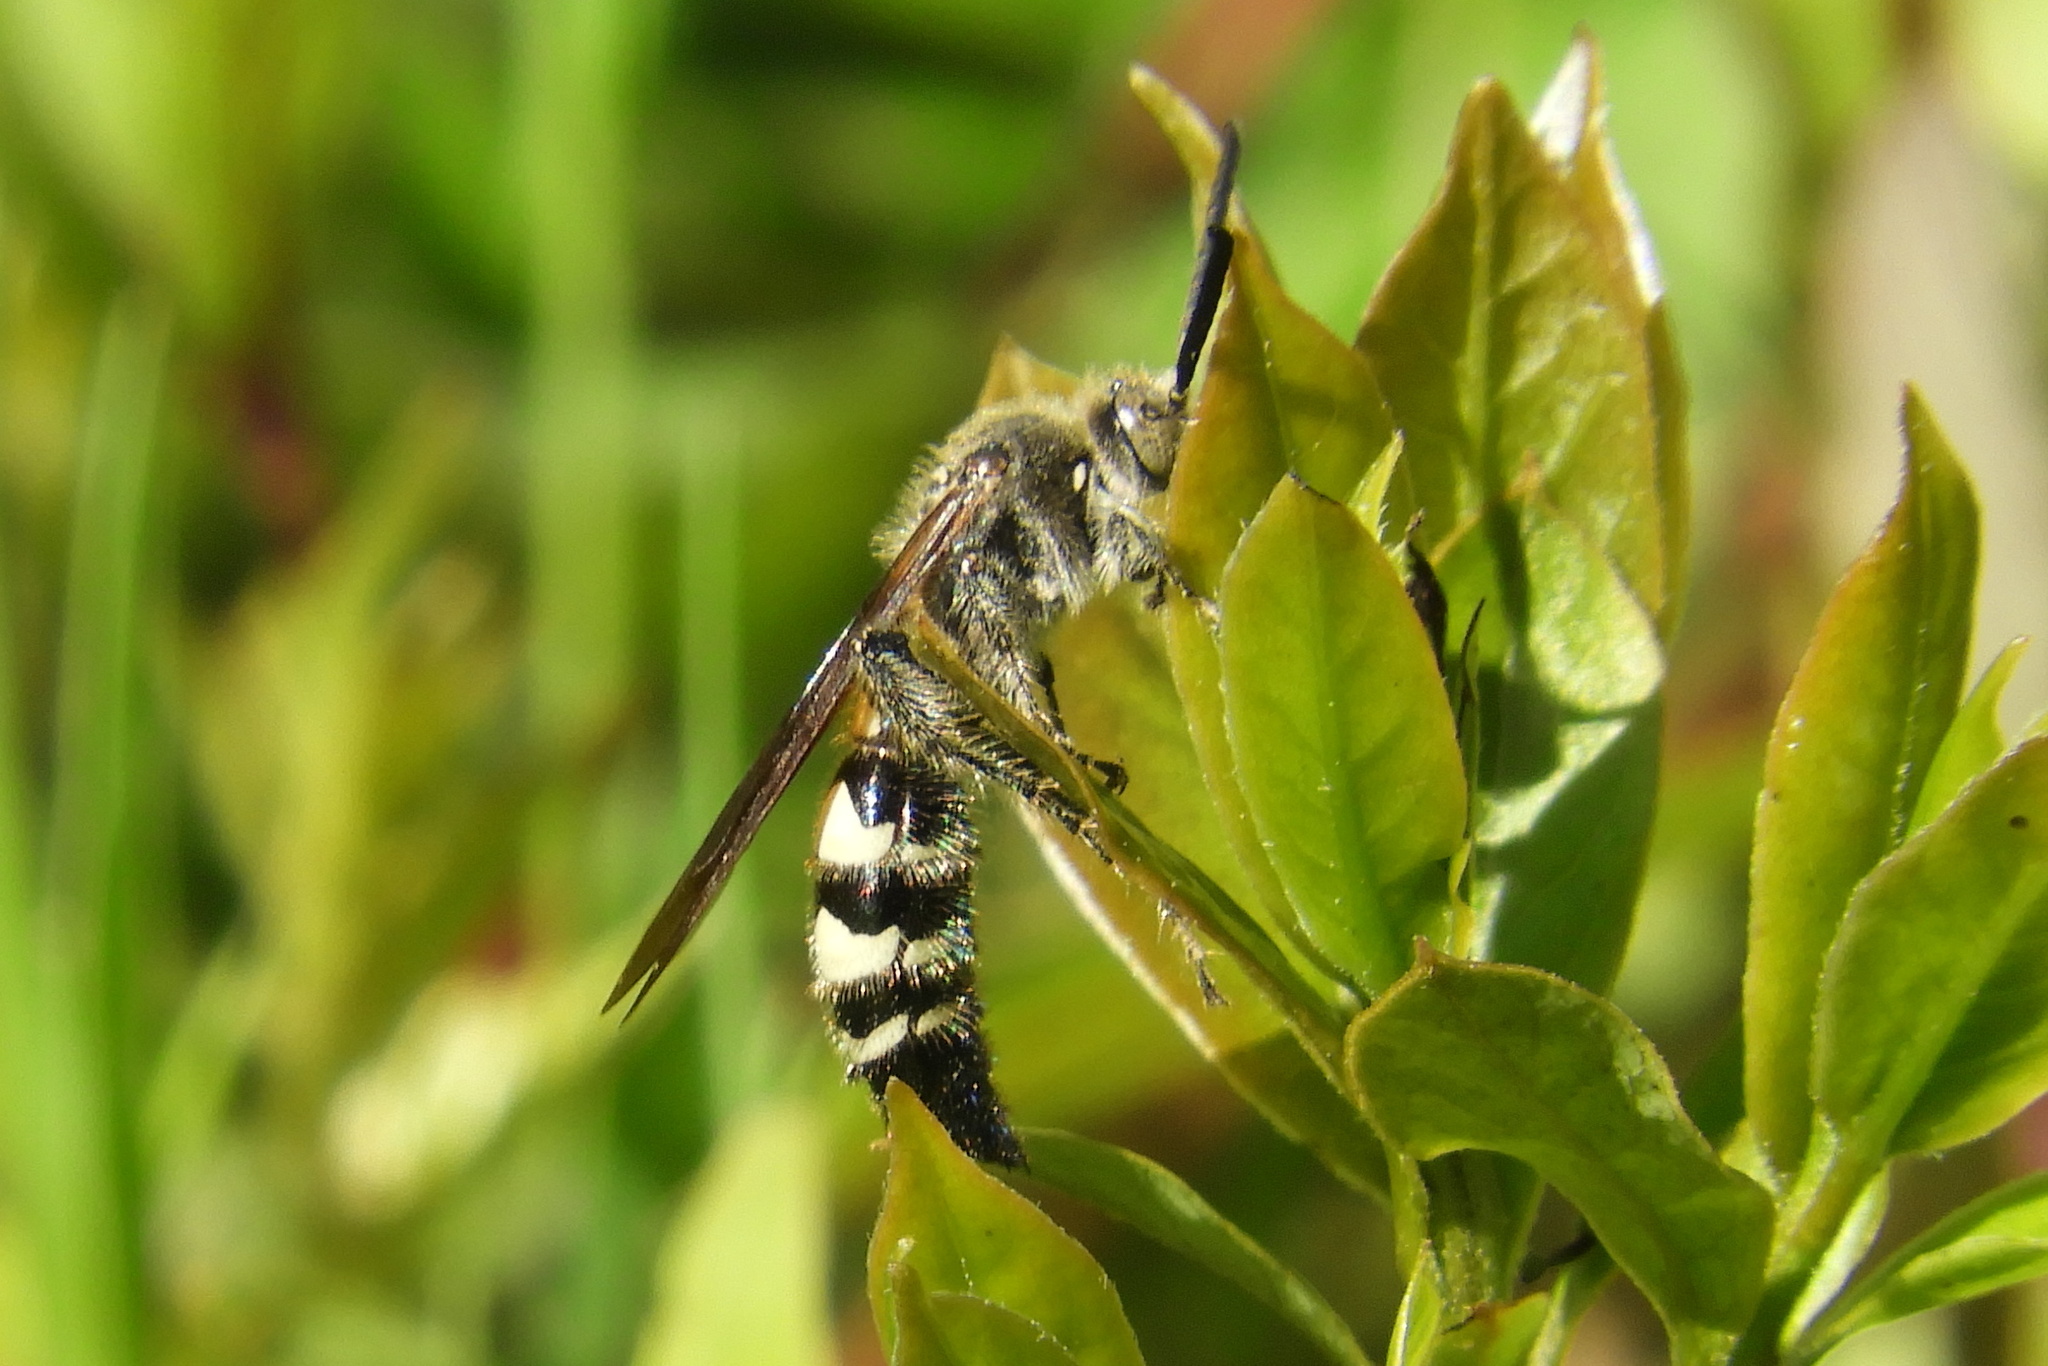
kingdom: Animalia
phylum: Arthropoda
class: Insecta
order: Hymenoptera
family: Scoliidae
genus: Dielis
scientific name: Dielis
